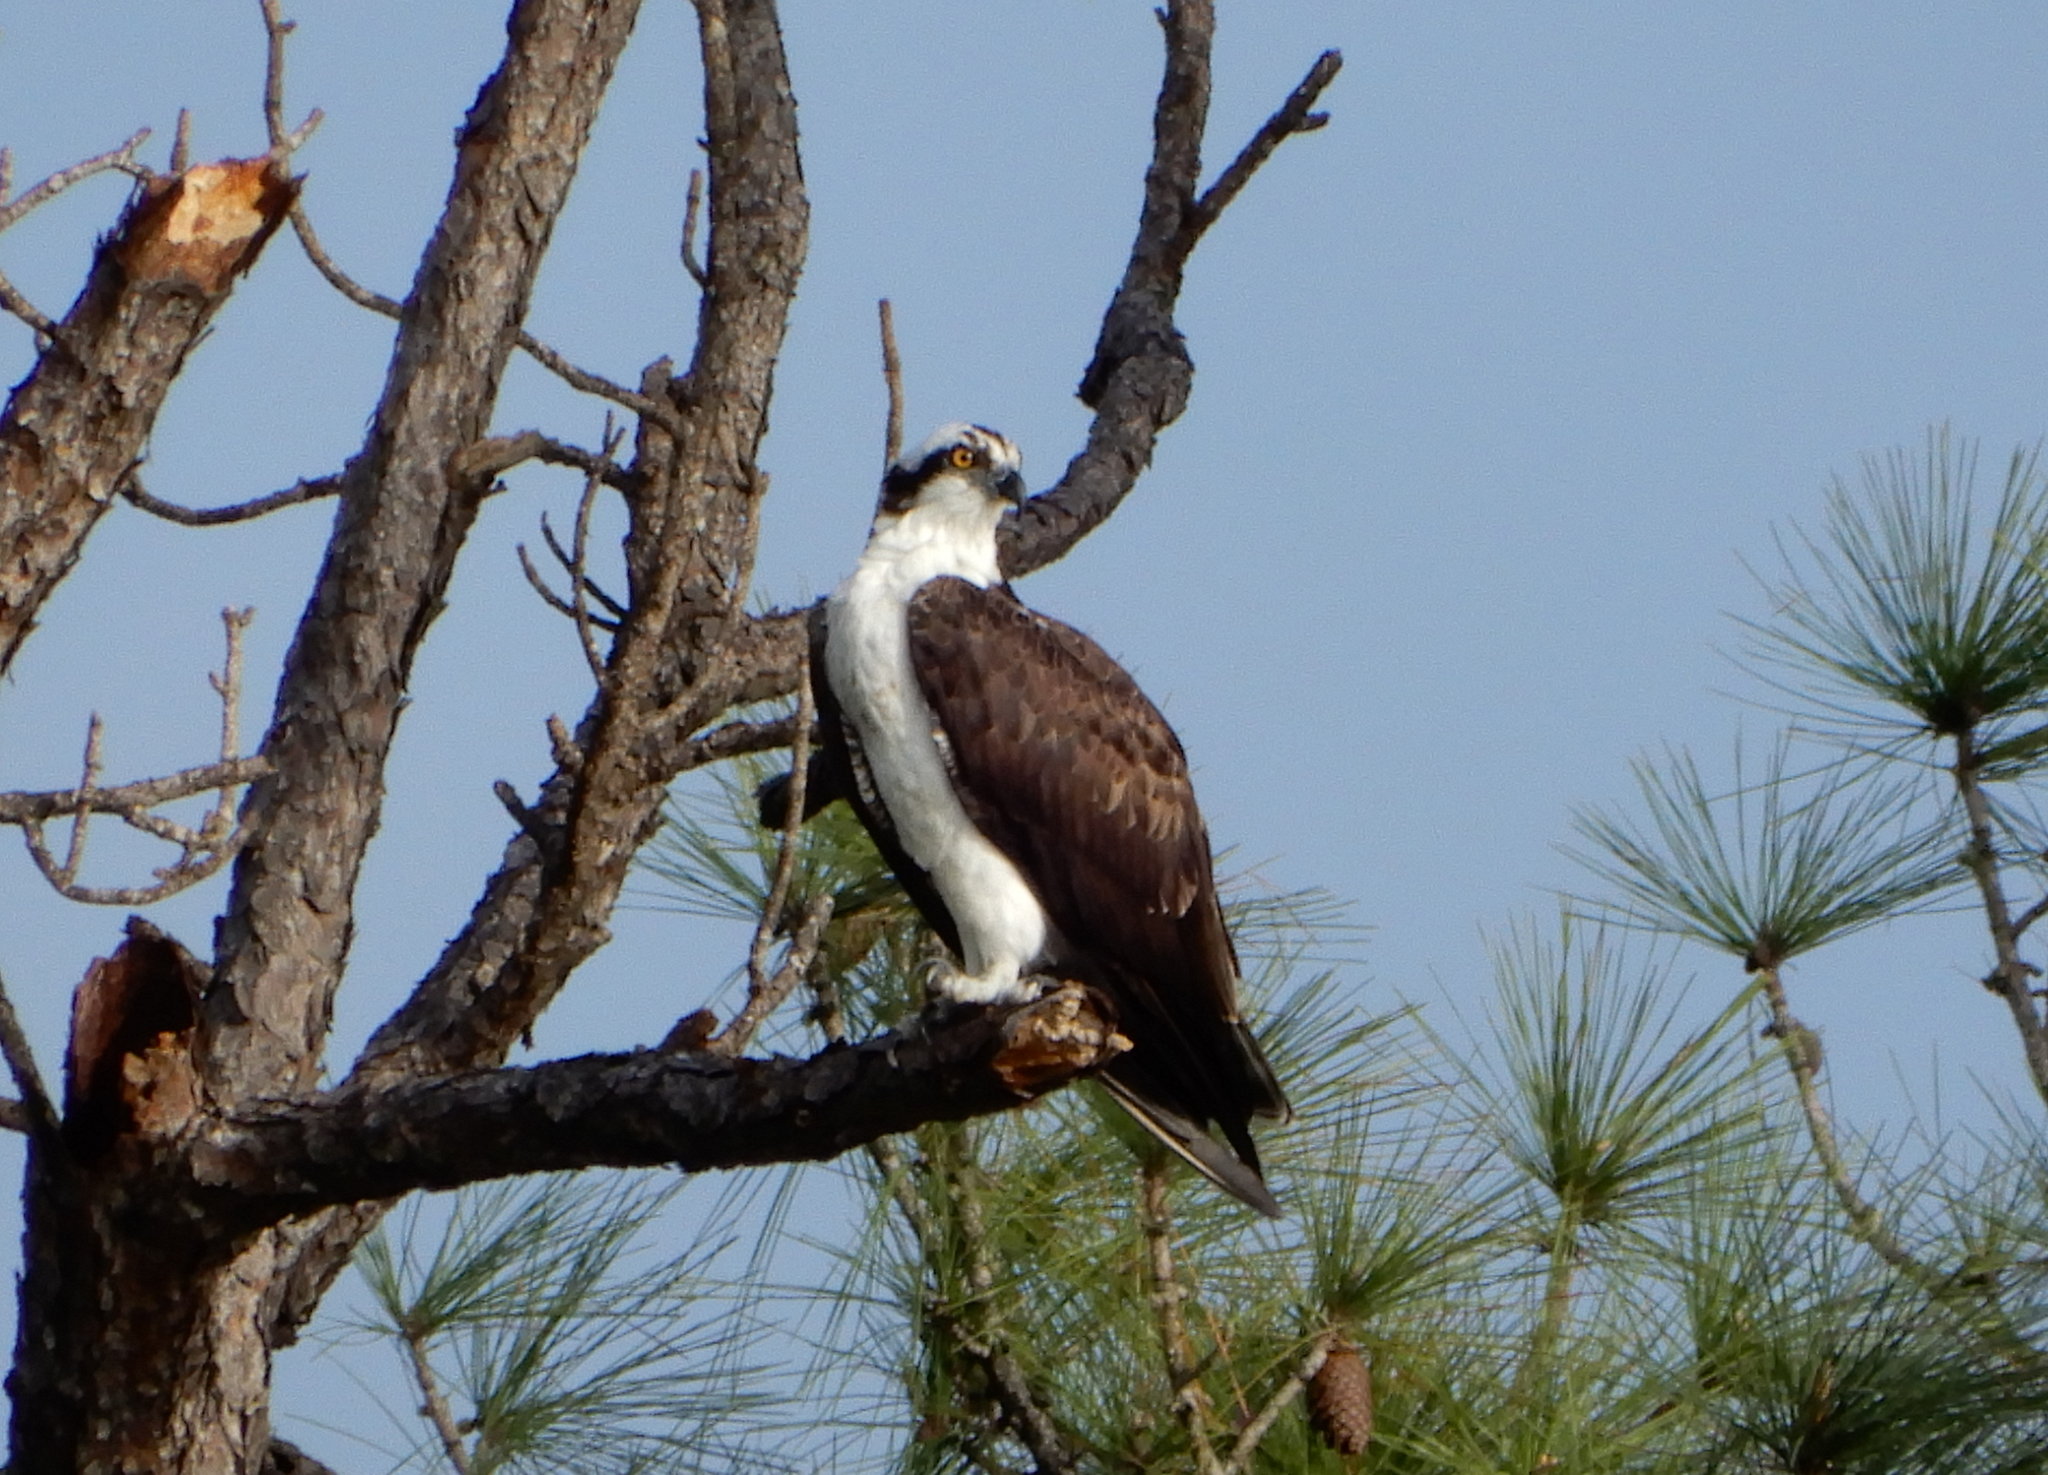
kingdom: Animalia
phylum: Chordata
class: Aves
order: Accipitriformes
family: Pandionidae
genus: Pandion
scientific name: Pandion haliaetus
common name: Osprey
